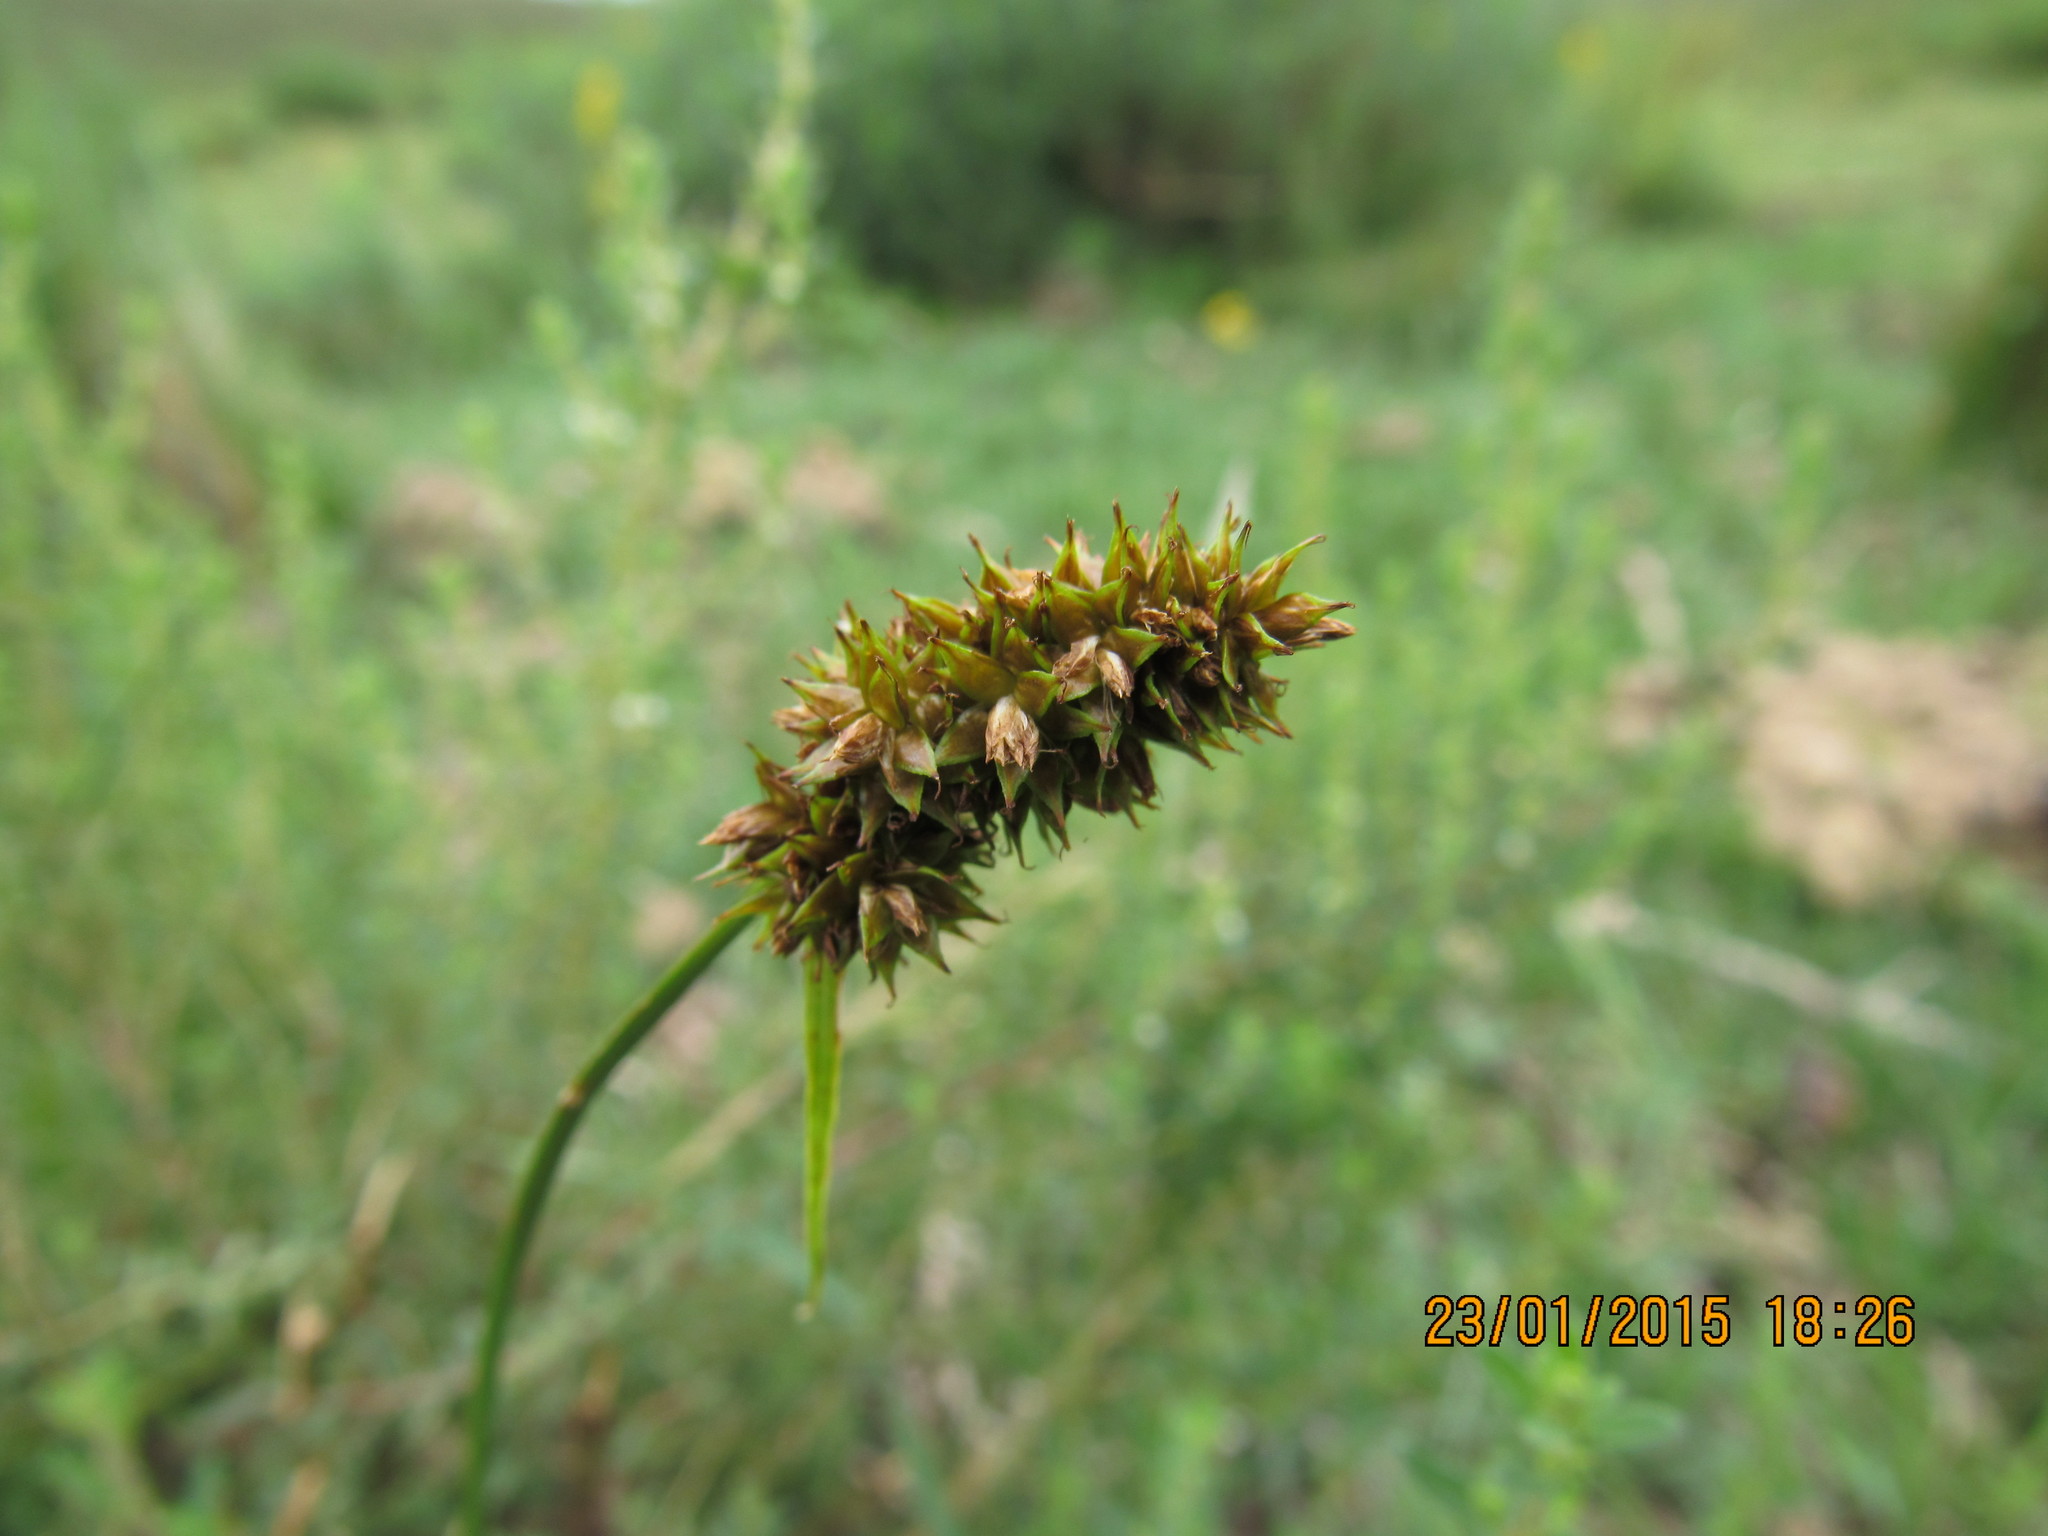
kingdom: Plantae
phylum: Tracheophyta
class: Liliopsida
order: Poales
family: Cyperaceae
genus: Carex
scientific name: Carex subdivulsa
